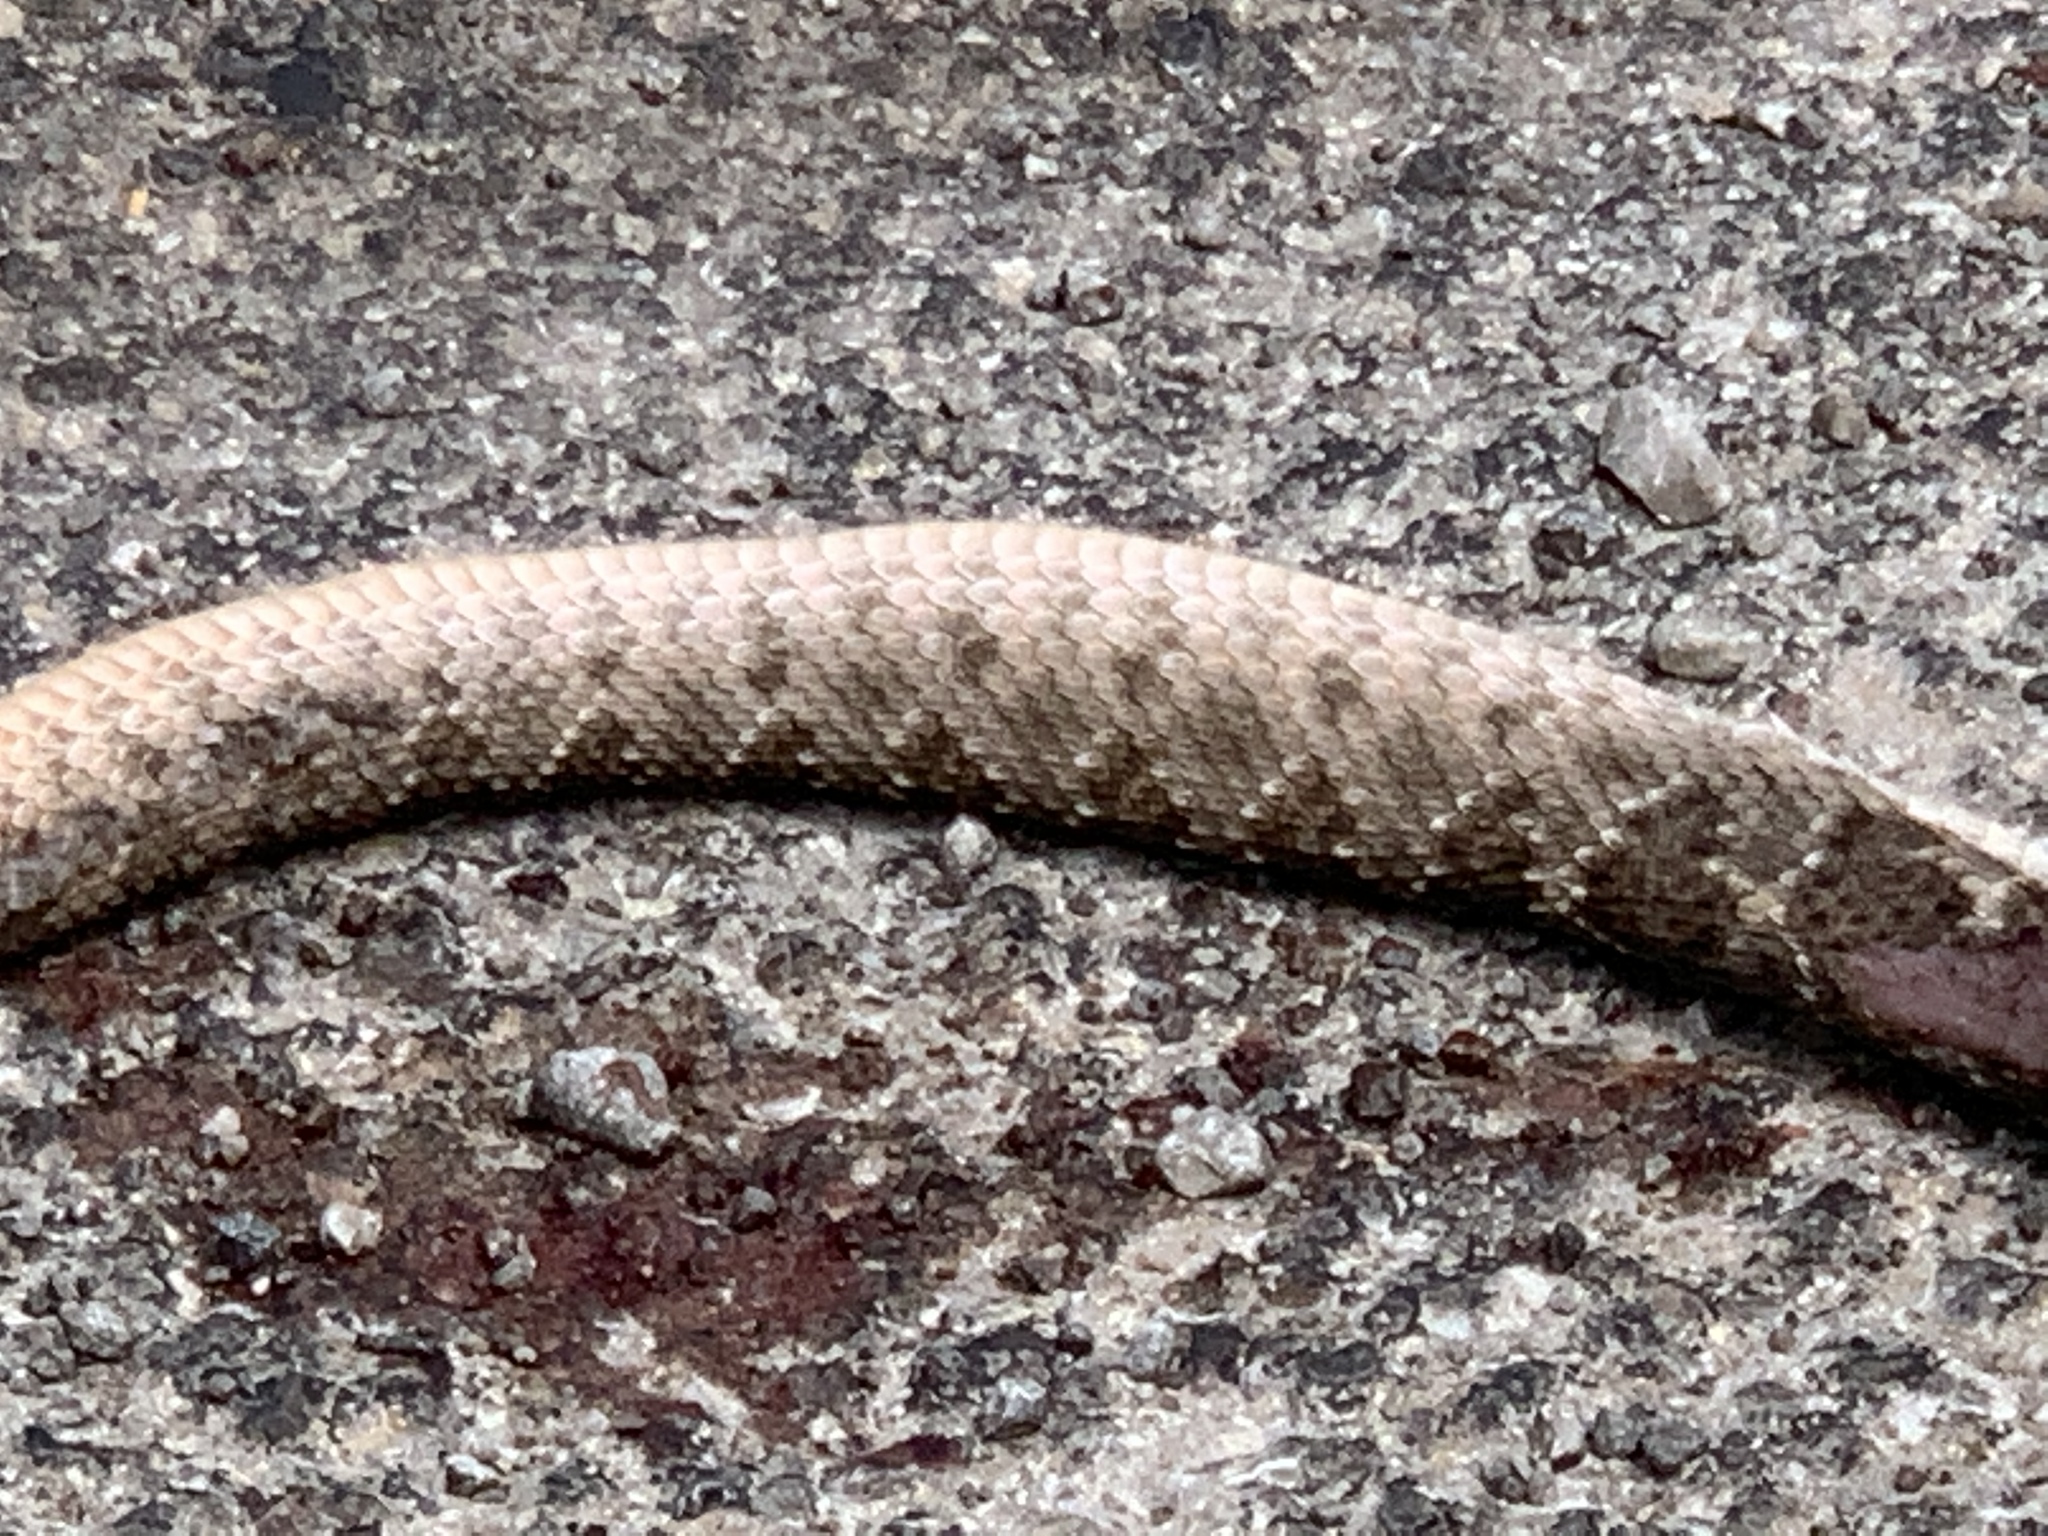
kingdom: Animalia
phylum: Chordata
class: Squamata
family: Viperidae
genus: Crotalus
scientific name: Crotalus atrox
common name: Western diamond-backed rattlesnake
